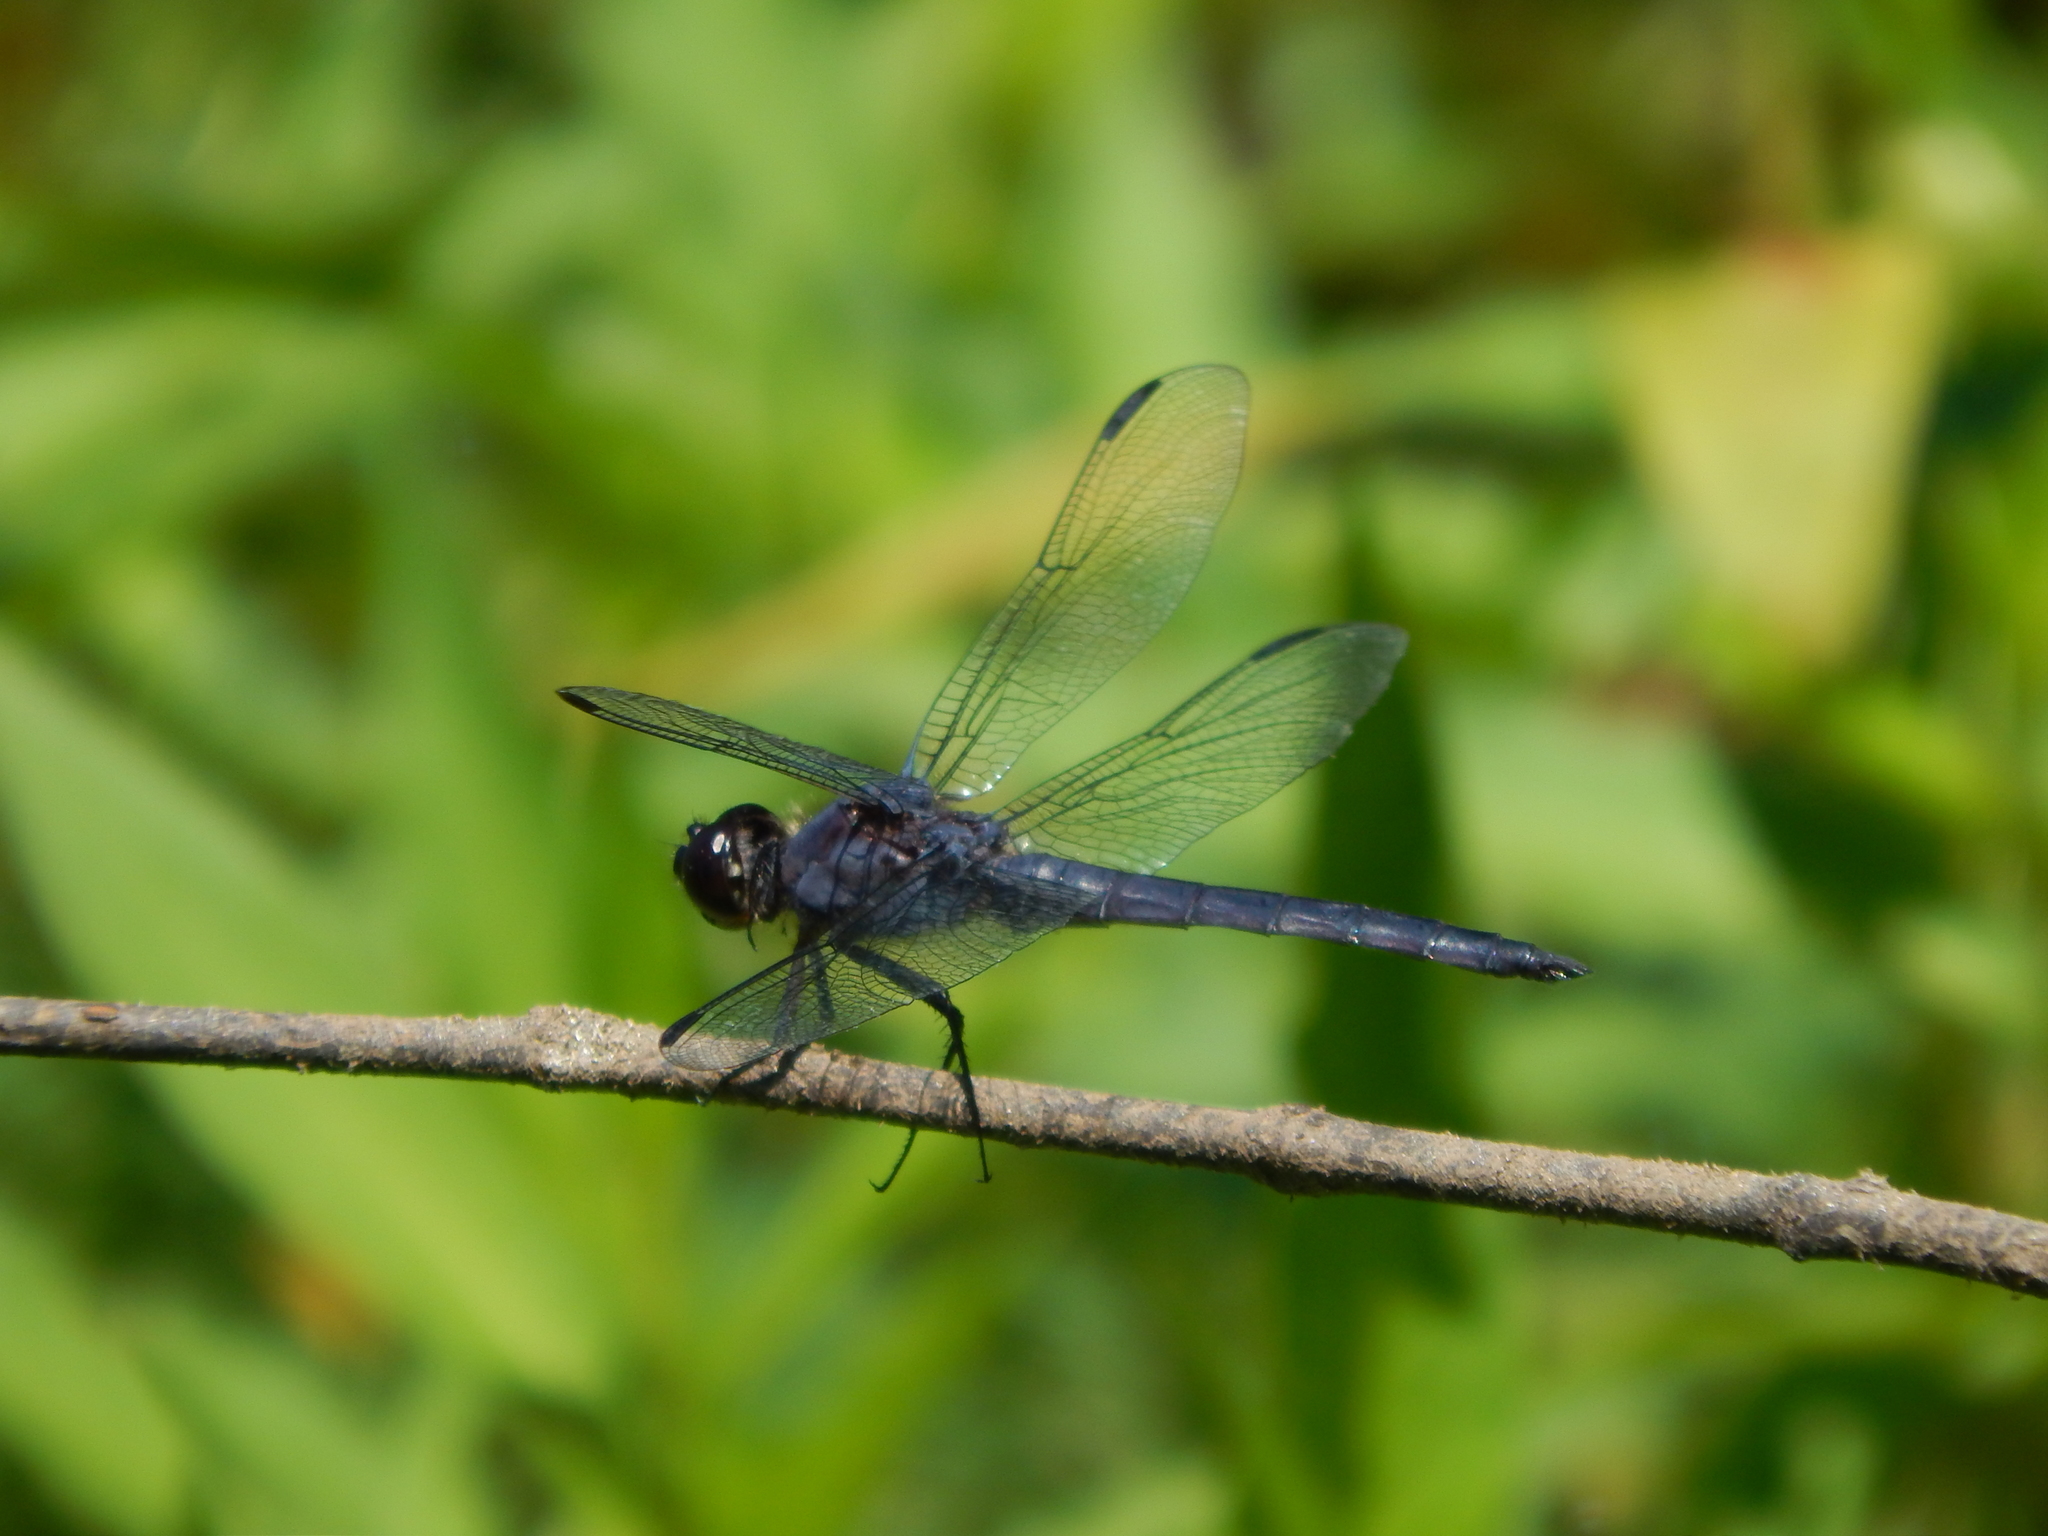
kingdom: Animalia
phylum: Arthropoda
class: Insecta
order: Odonata
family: Libellulidae
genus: Libellula
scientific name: Libellula incesta
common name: Slaty skimmer
